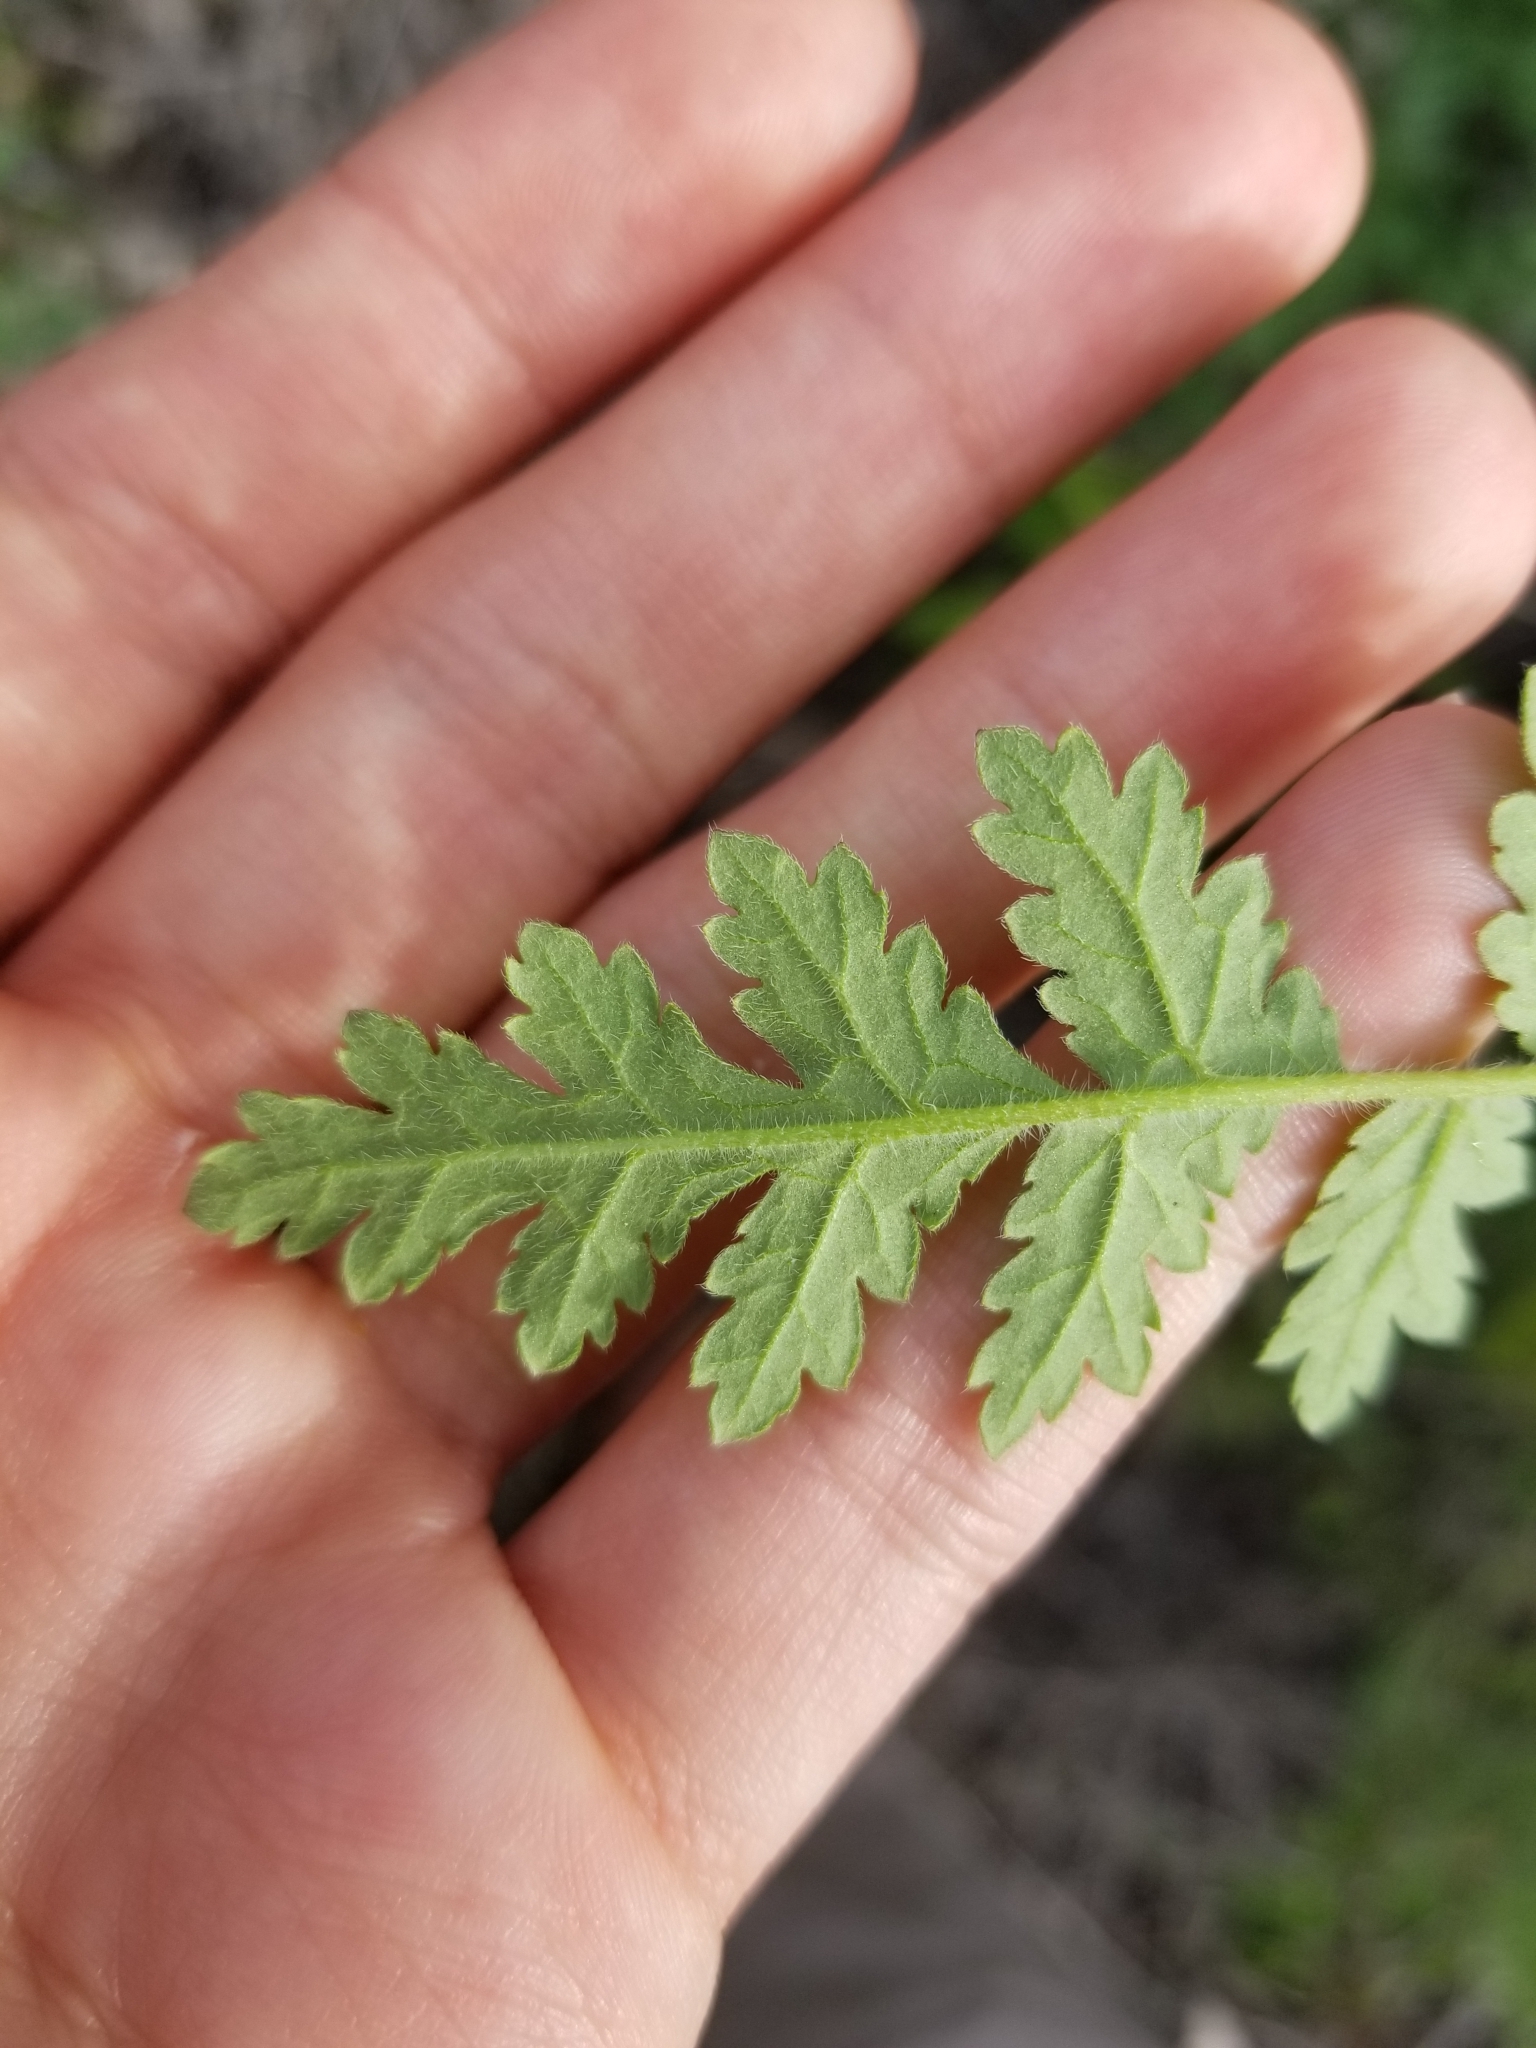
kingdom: Plantae
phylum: Tracheophyta
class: Magnoliopsida
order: Boraginales
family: Hydrophyllaceae
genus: Phacelia
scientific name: Phacelia ramosissima
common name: Branching phacelia
